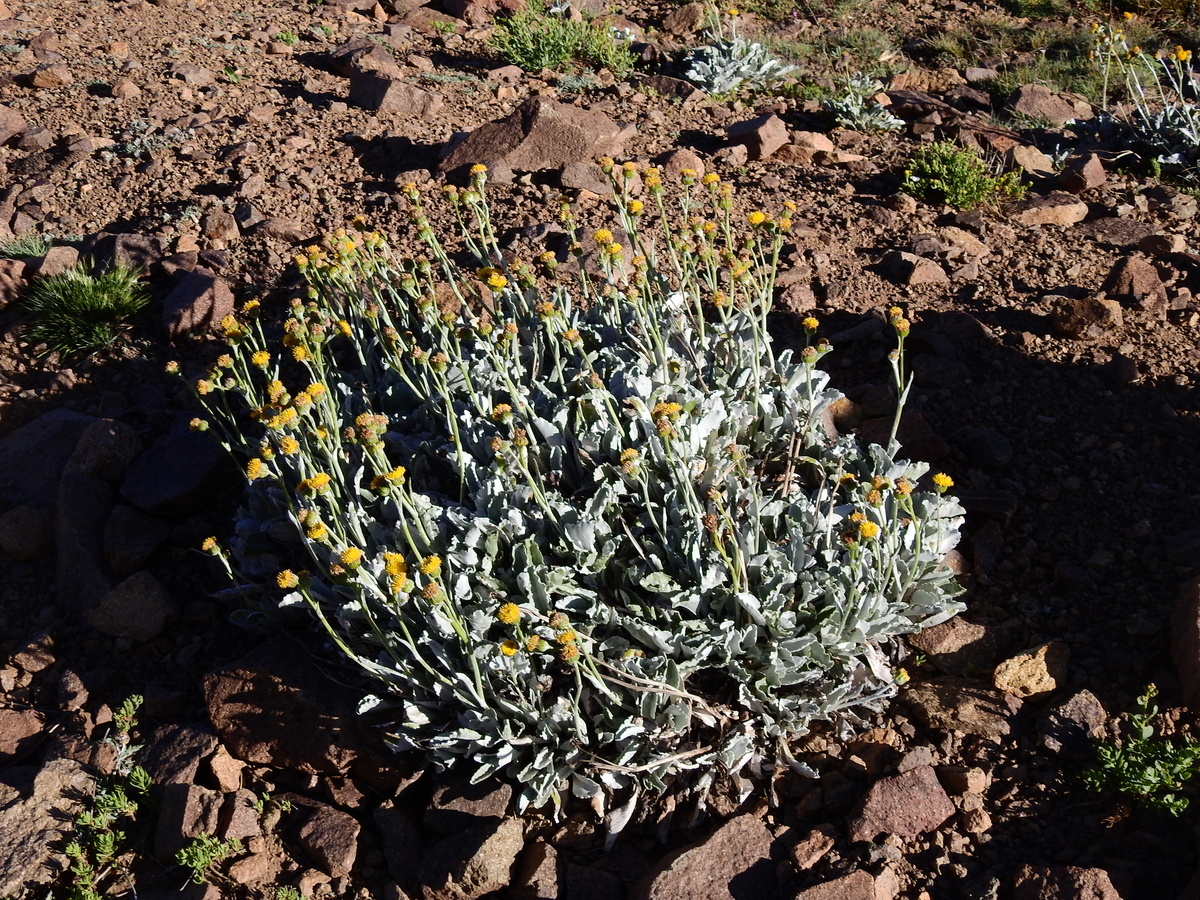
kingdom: Plantae
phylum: Tracheophyta
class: Magnoliopsida
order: Asterales
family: Asteraceae
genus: Senecio
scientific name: Senecio gilliesii
